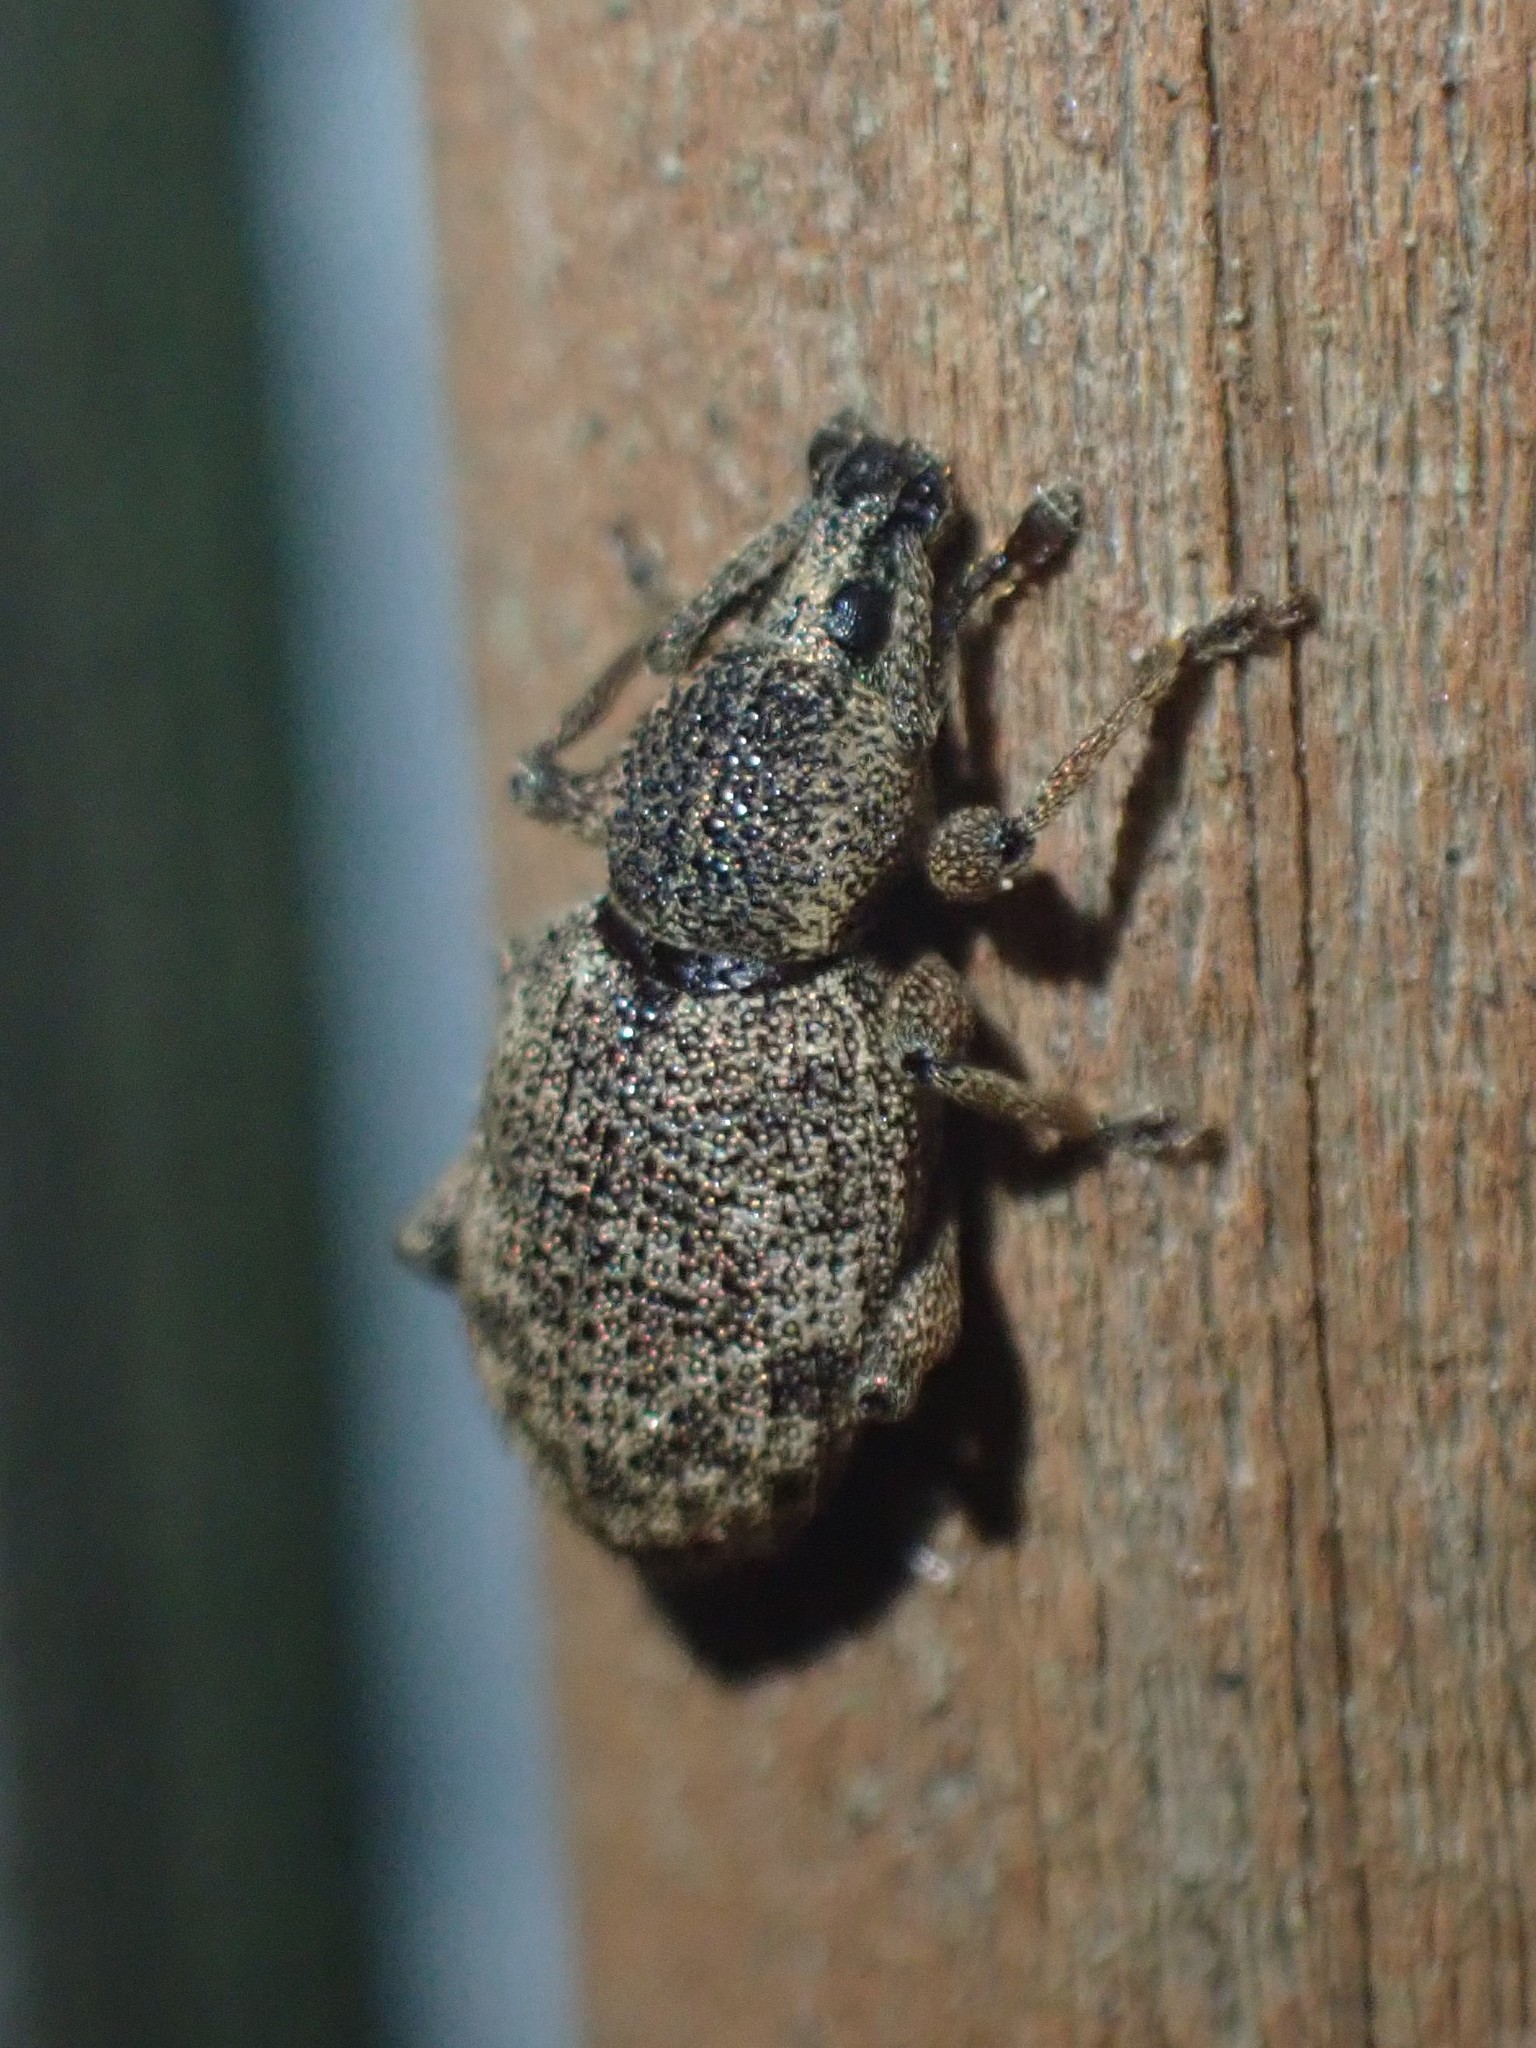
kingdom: Animalia
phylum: Arthropoda
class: Insecta
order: Coleoptera
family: Curculionidae
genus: Otiorhynchus
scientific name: Otiorhynchus singularis
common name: Clay-coloured weevil
